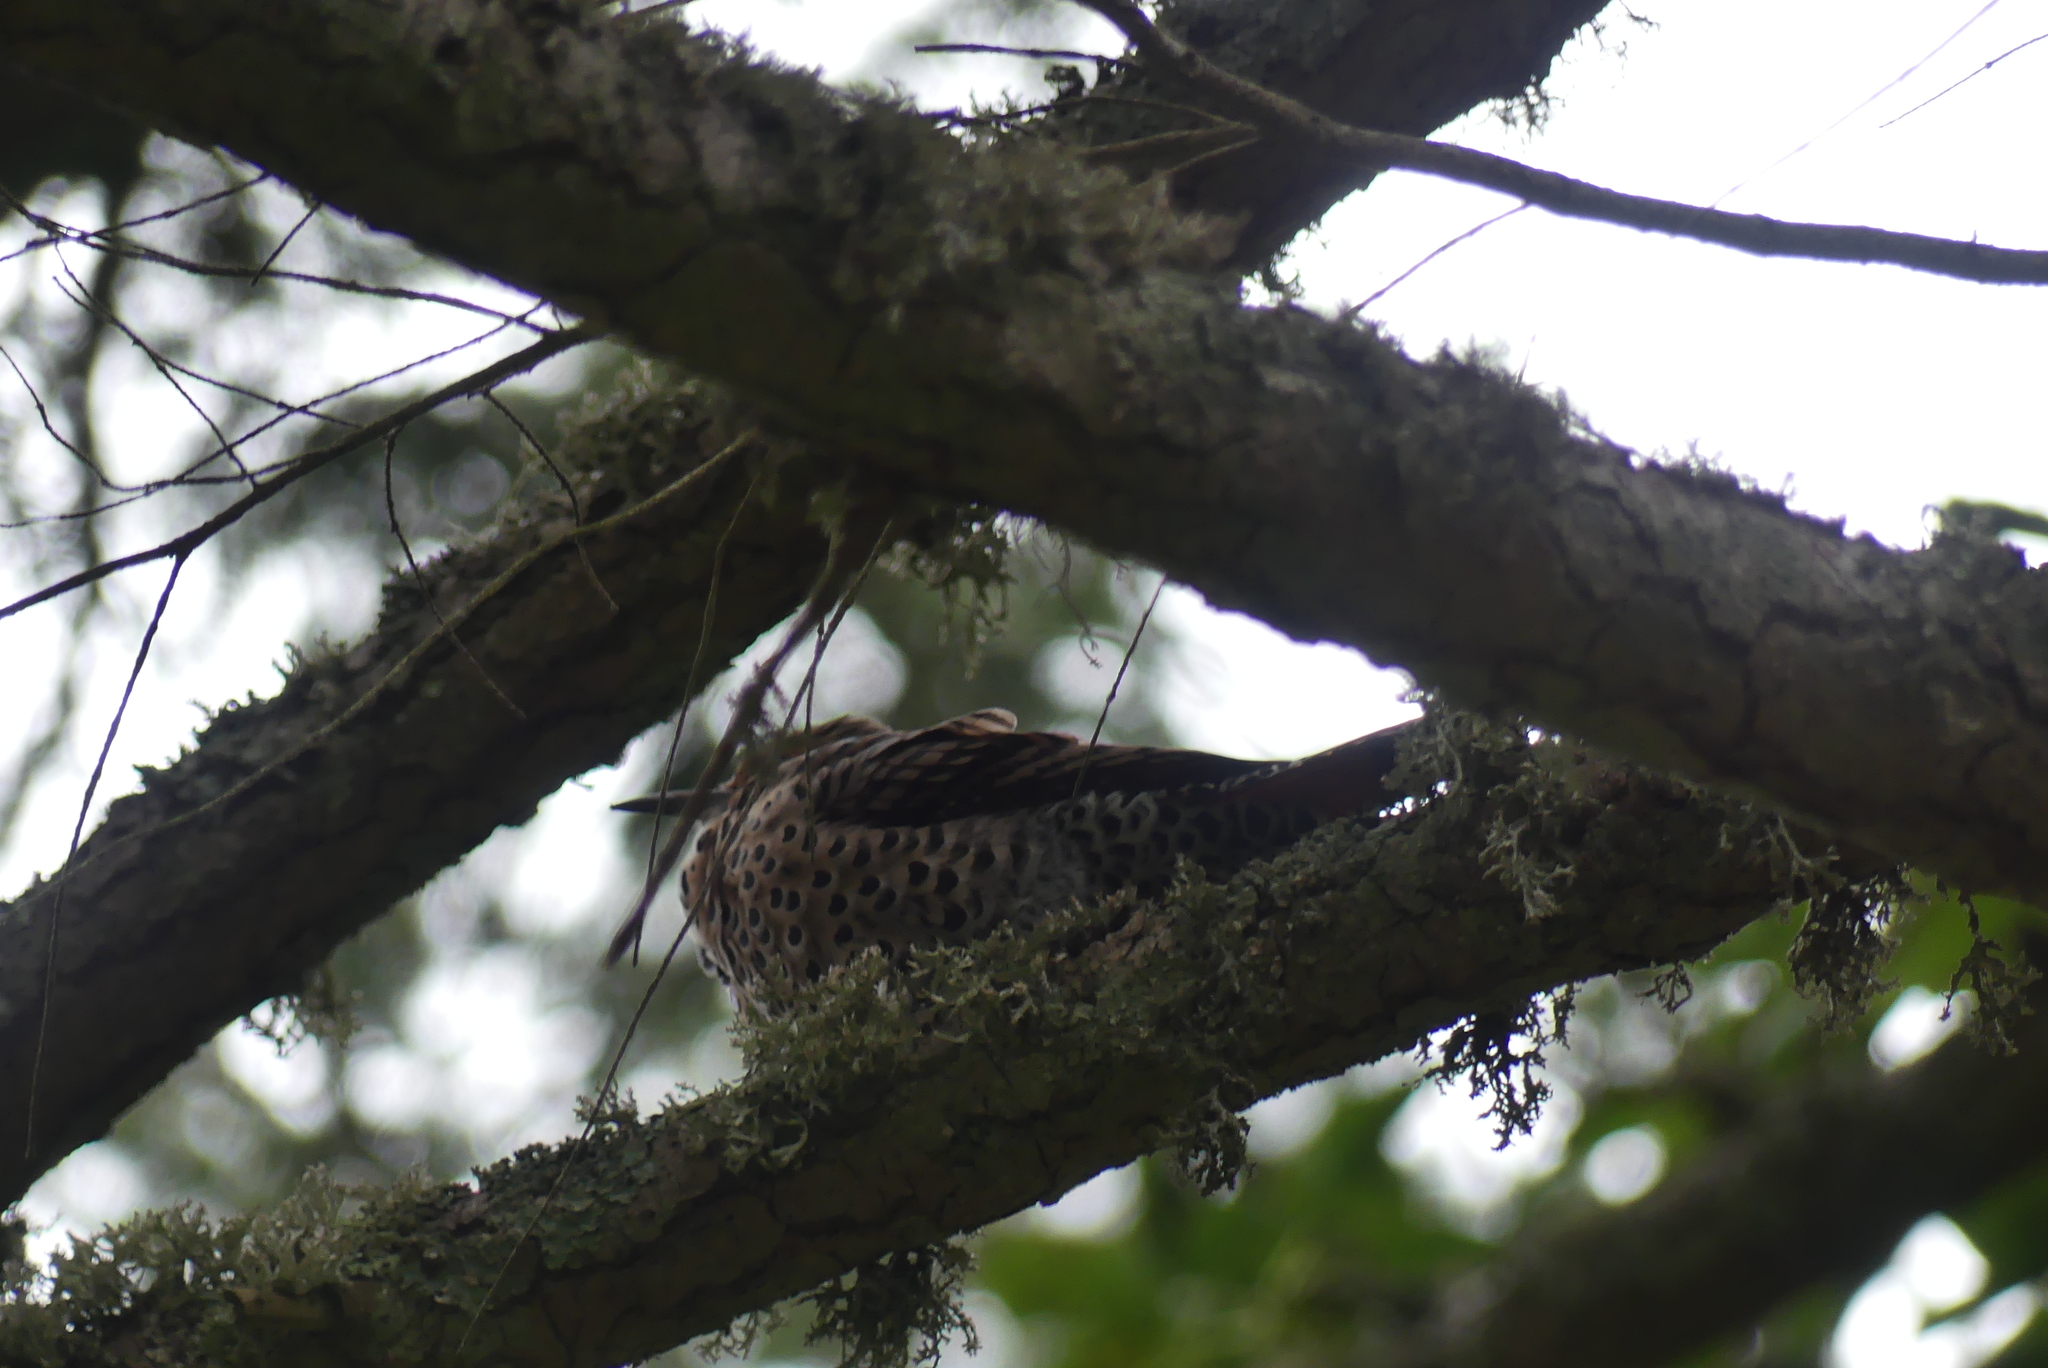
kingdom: Animalia
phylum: Chordata
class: Aves
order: Piciformes
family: Picidae
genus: Colaptes
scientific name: Colaptes auratus
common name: Northern flicker
